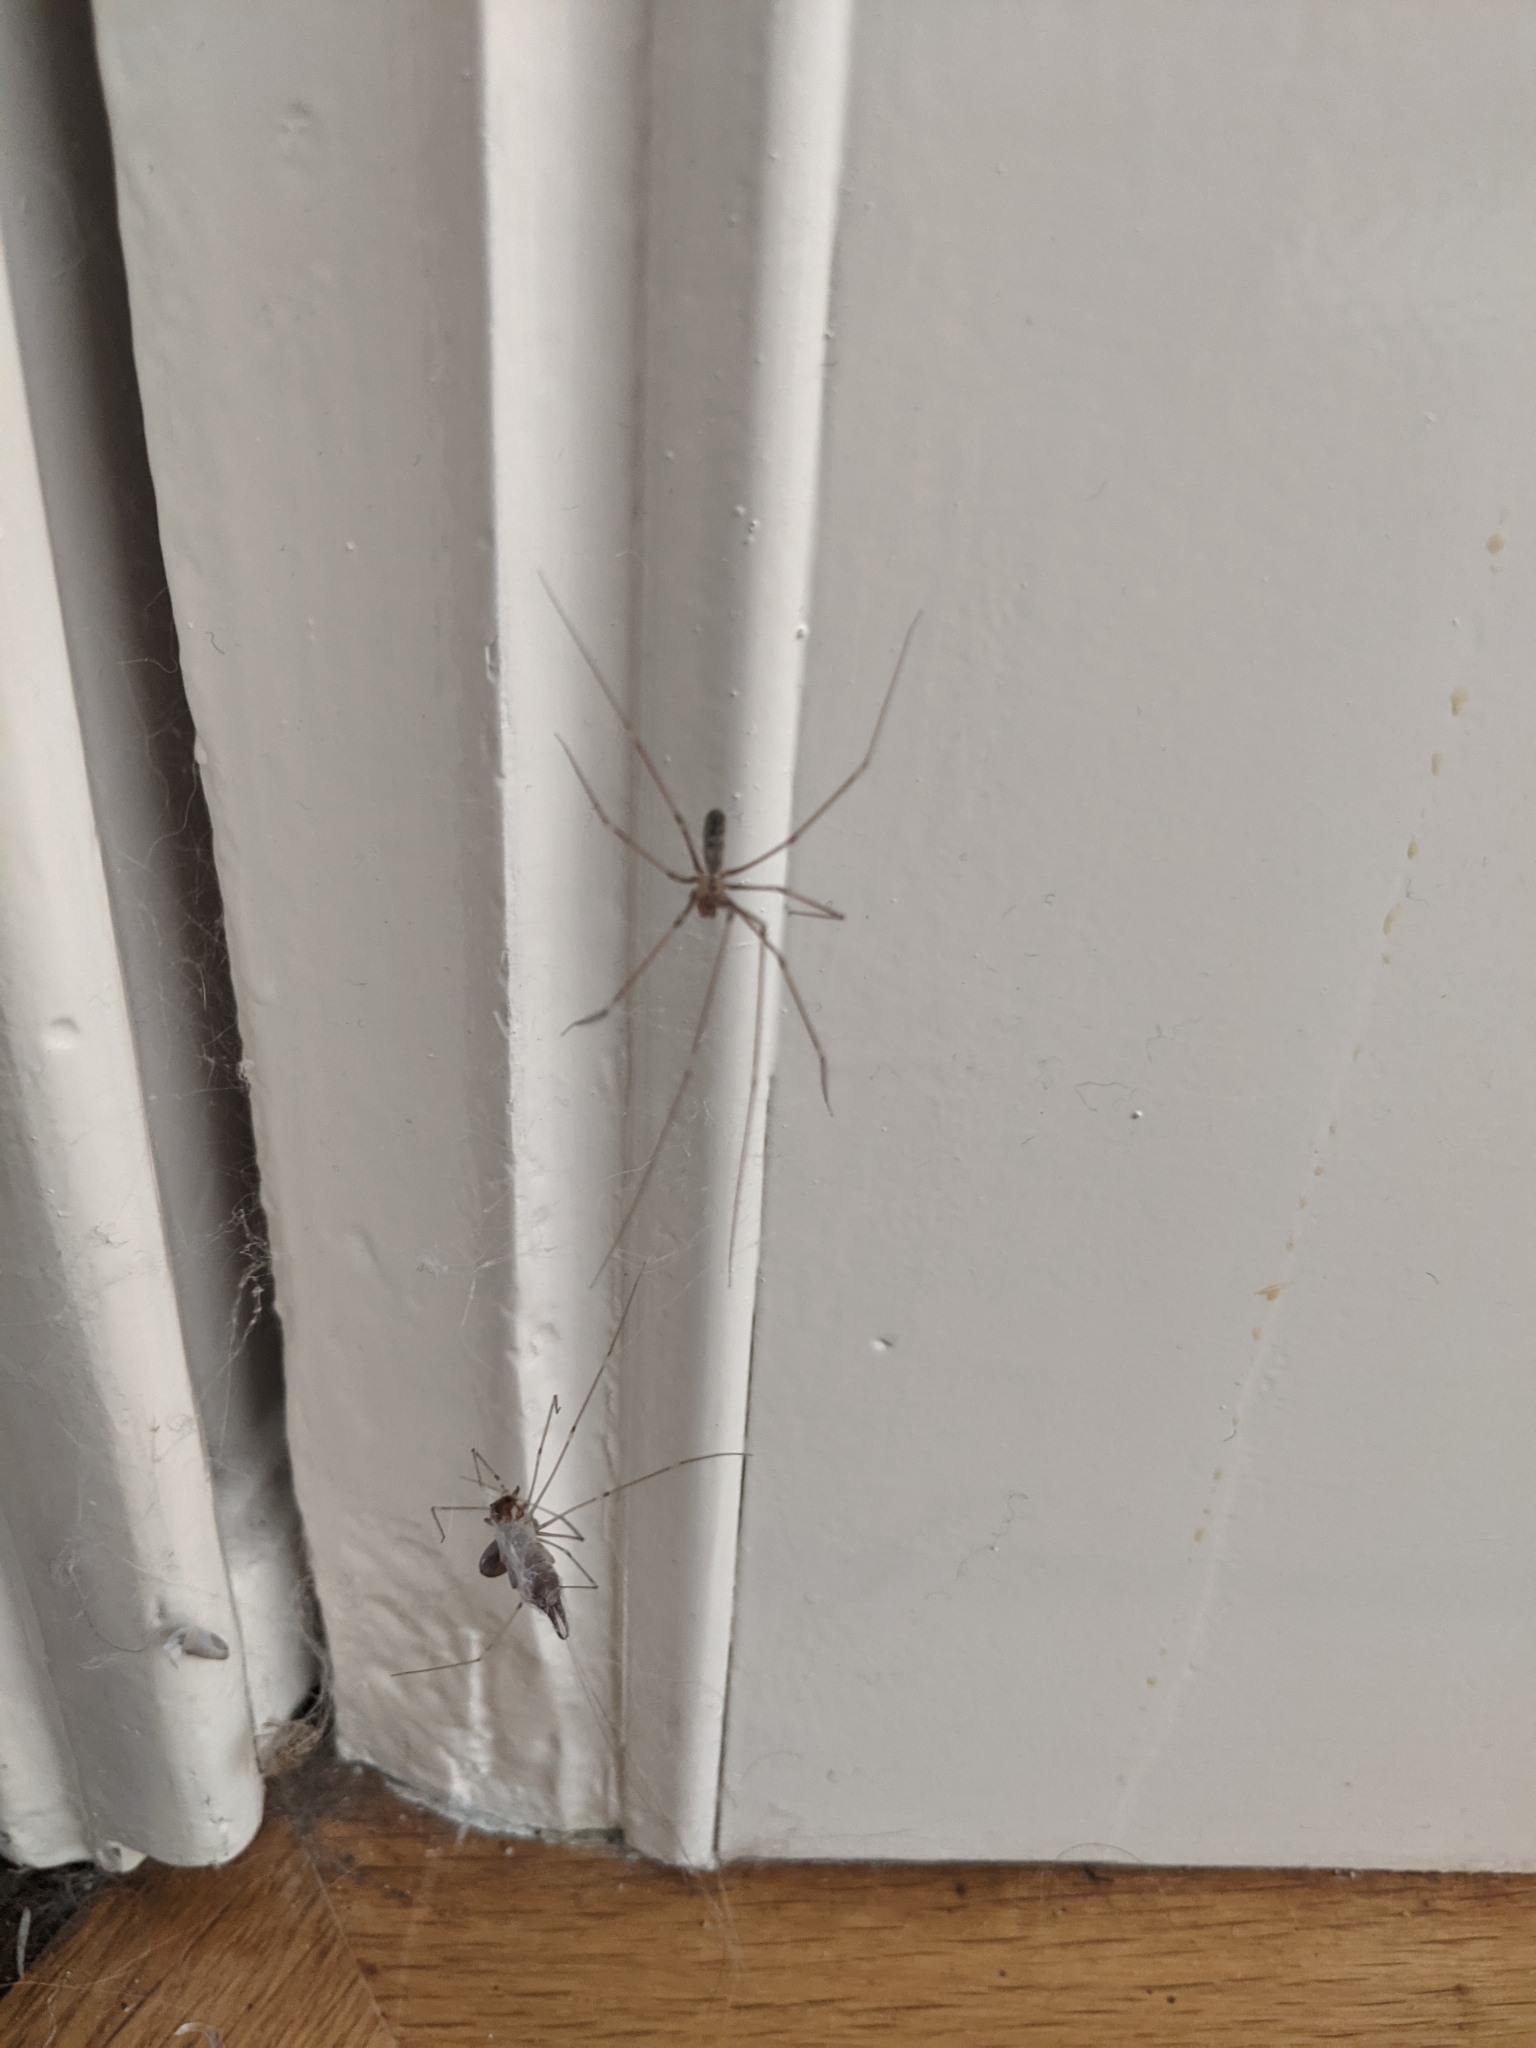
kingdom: Animalia
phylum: Arthropoda
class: Arachnida
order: Araneae
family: Pholcidae
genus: Pholcus
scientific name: Pholcus phalangioides
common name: Longbodied cellar spider
